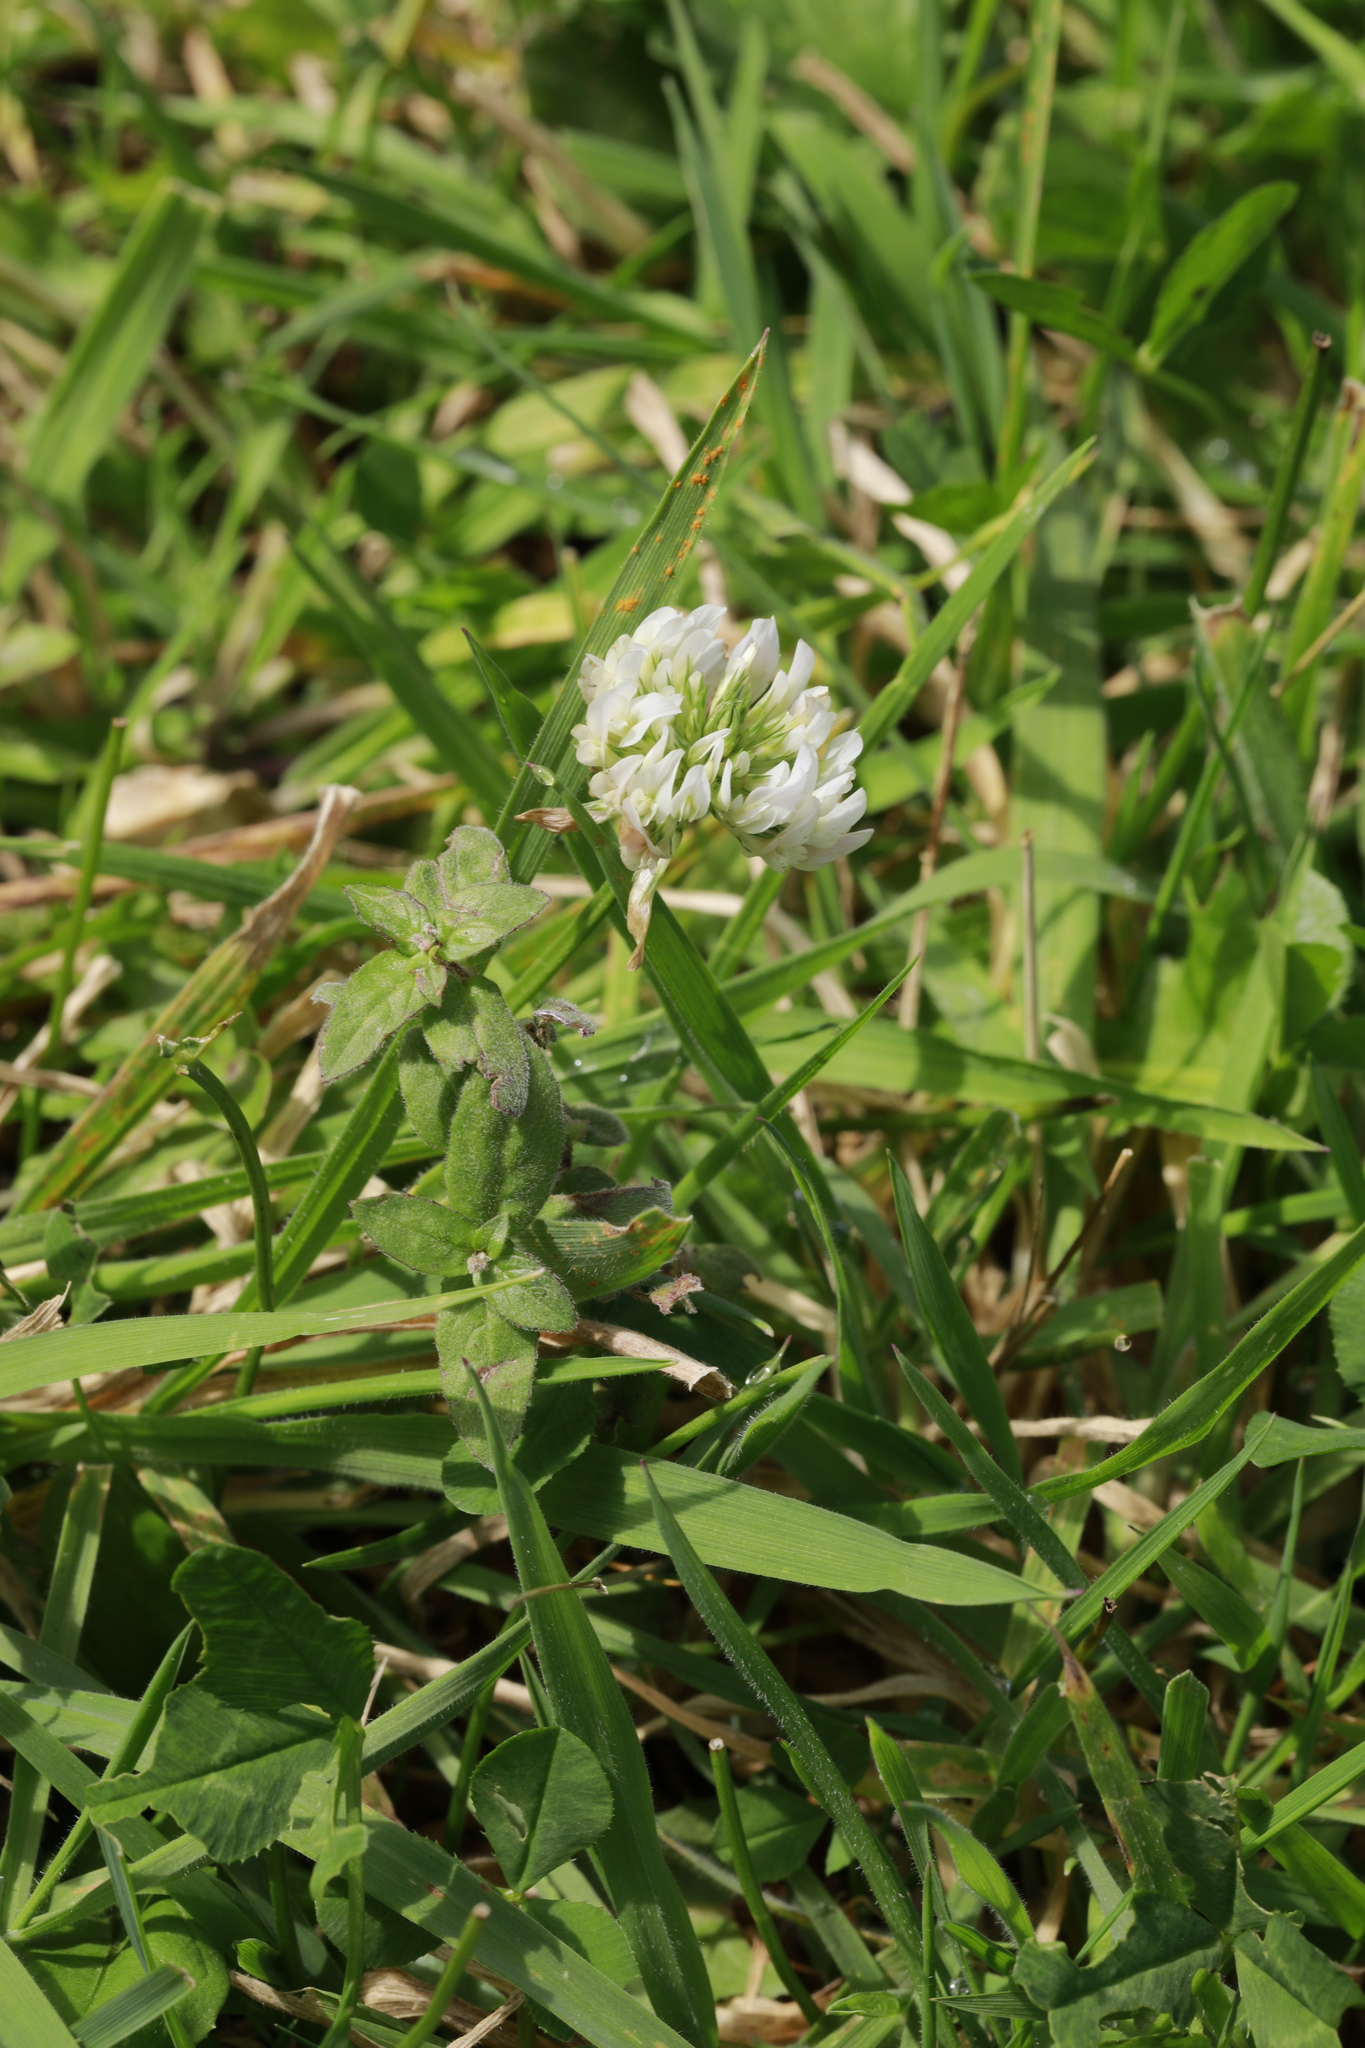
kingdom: Plantae
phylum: Tracheophyta
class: Magnoliopsida
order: Fabales
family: Fabaceae
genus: Trifolium
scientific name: Trifolium repens
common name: White clover
